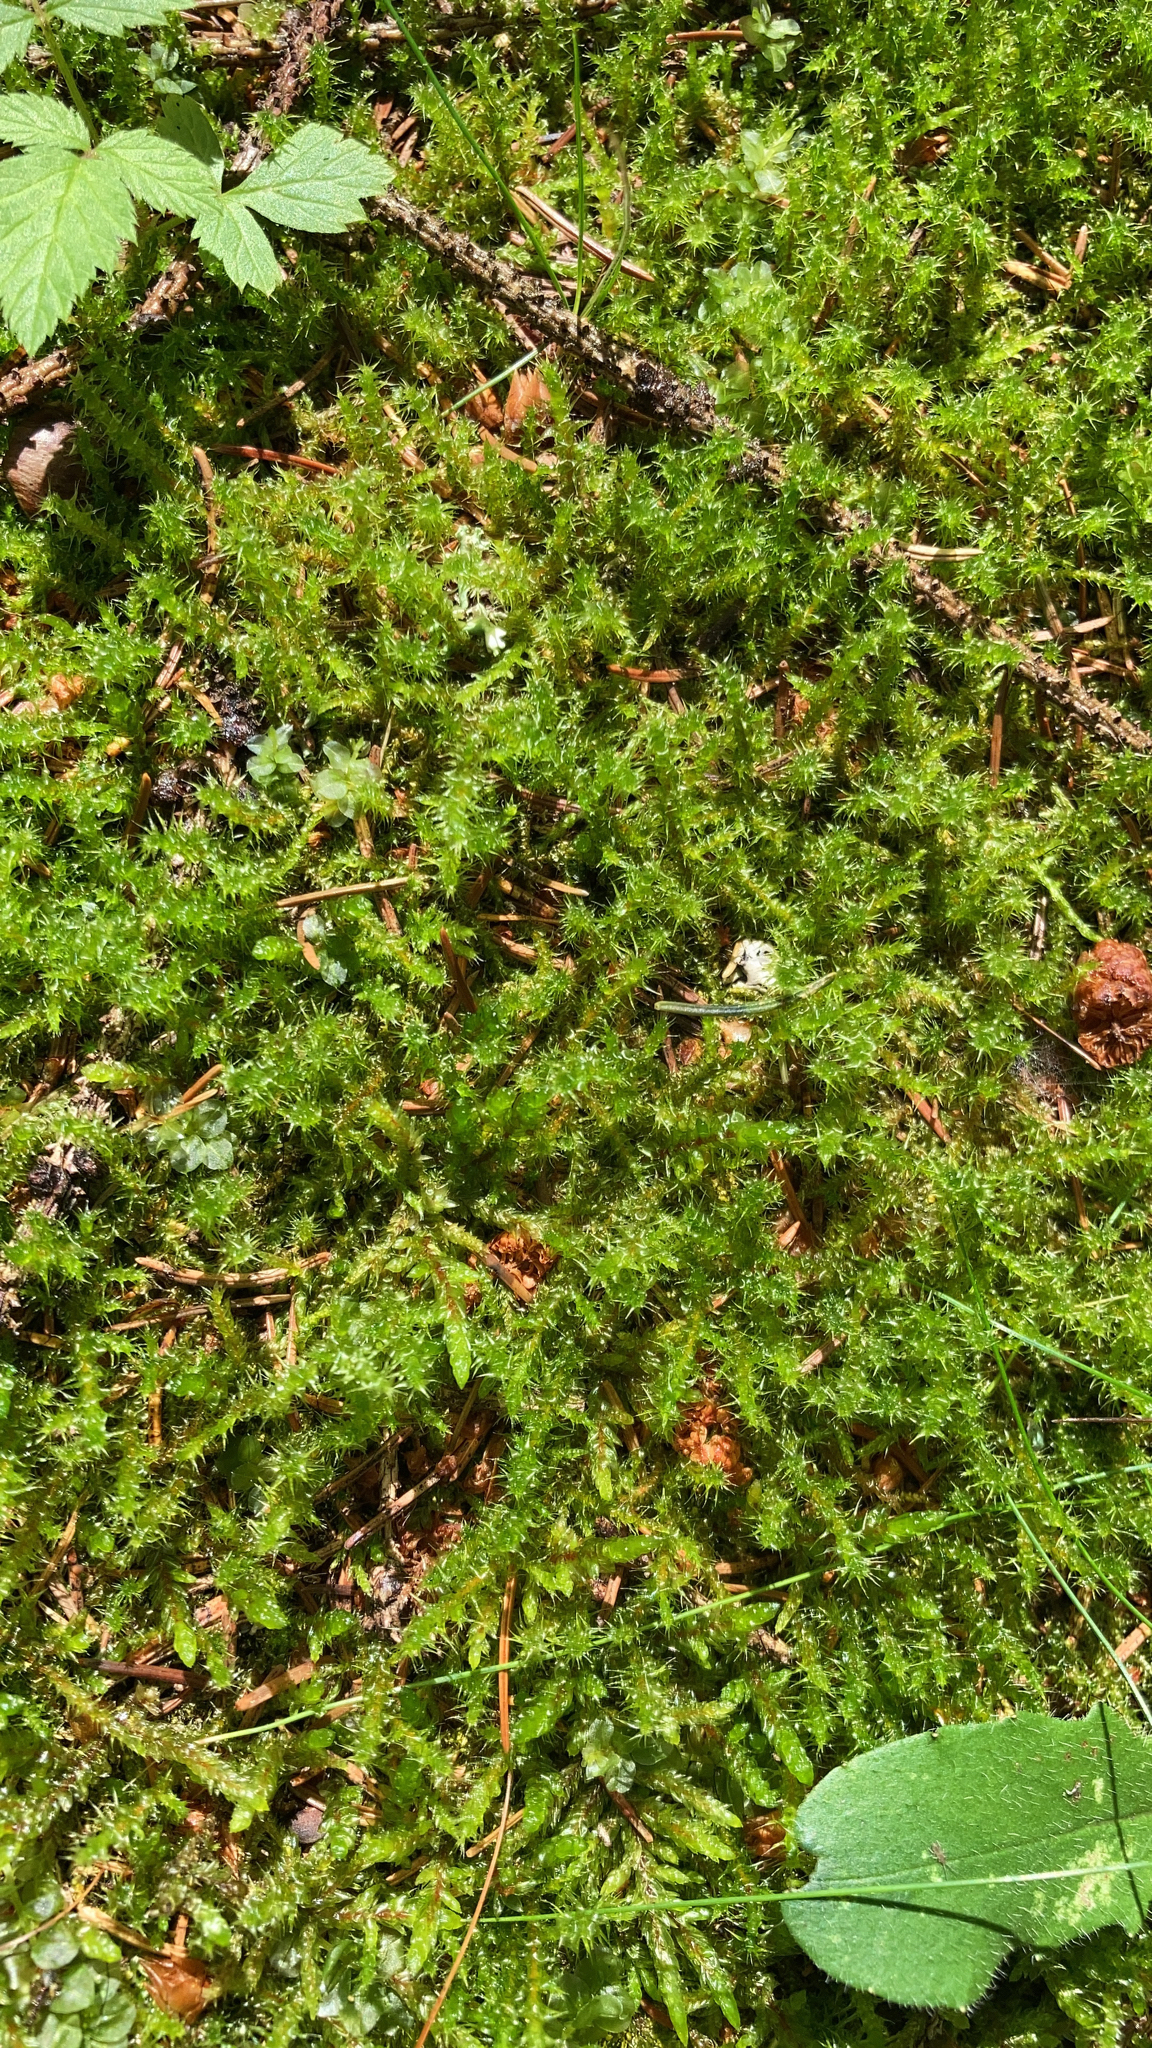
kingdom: Plantae
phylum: Bryophyta
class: Bryopsida
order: Hypnales
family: Hylocomiaceae
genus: Rhytidiadelphus
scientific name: Rhytidiadelphus squarrosus
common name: Springy turf-moss
